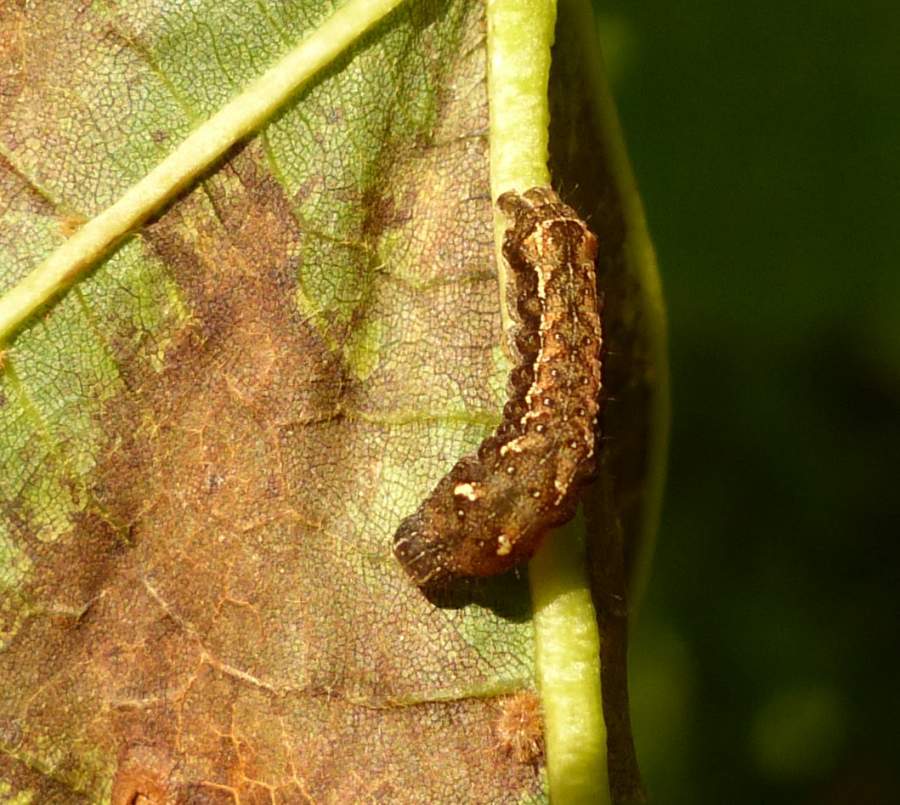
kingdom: Animalia
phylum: Arthropoda
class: Insecta
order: Lepidoptera
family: Noctuidae
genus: Pseudorthodes
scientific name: Pseudorthodes vecors
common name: Small brown quaker
